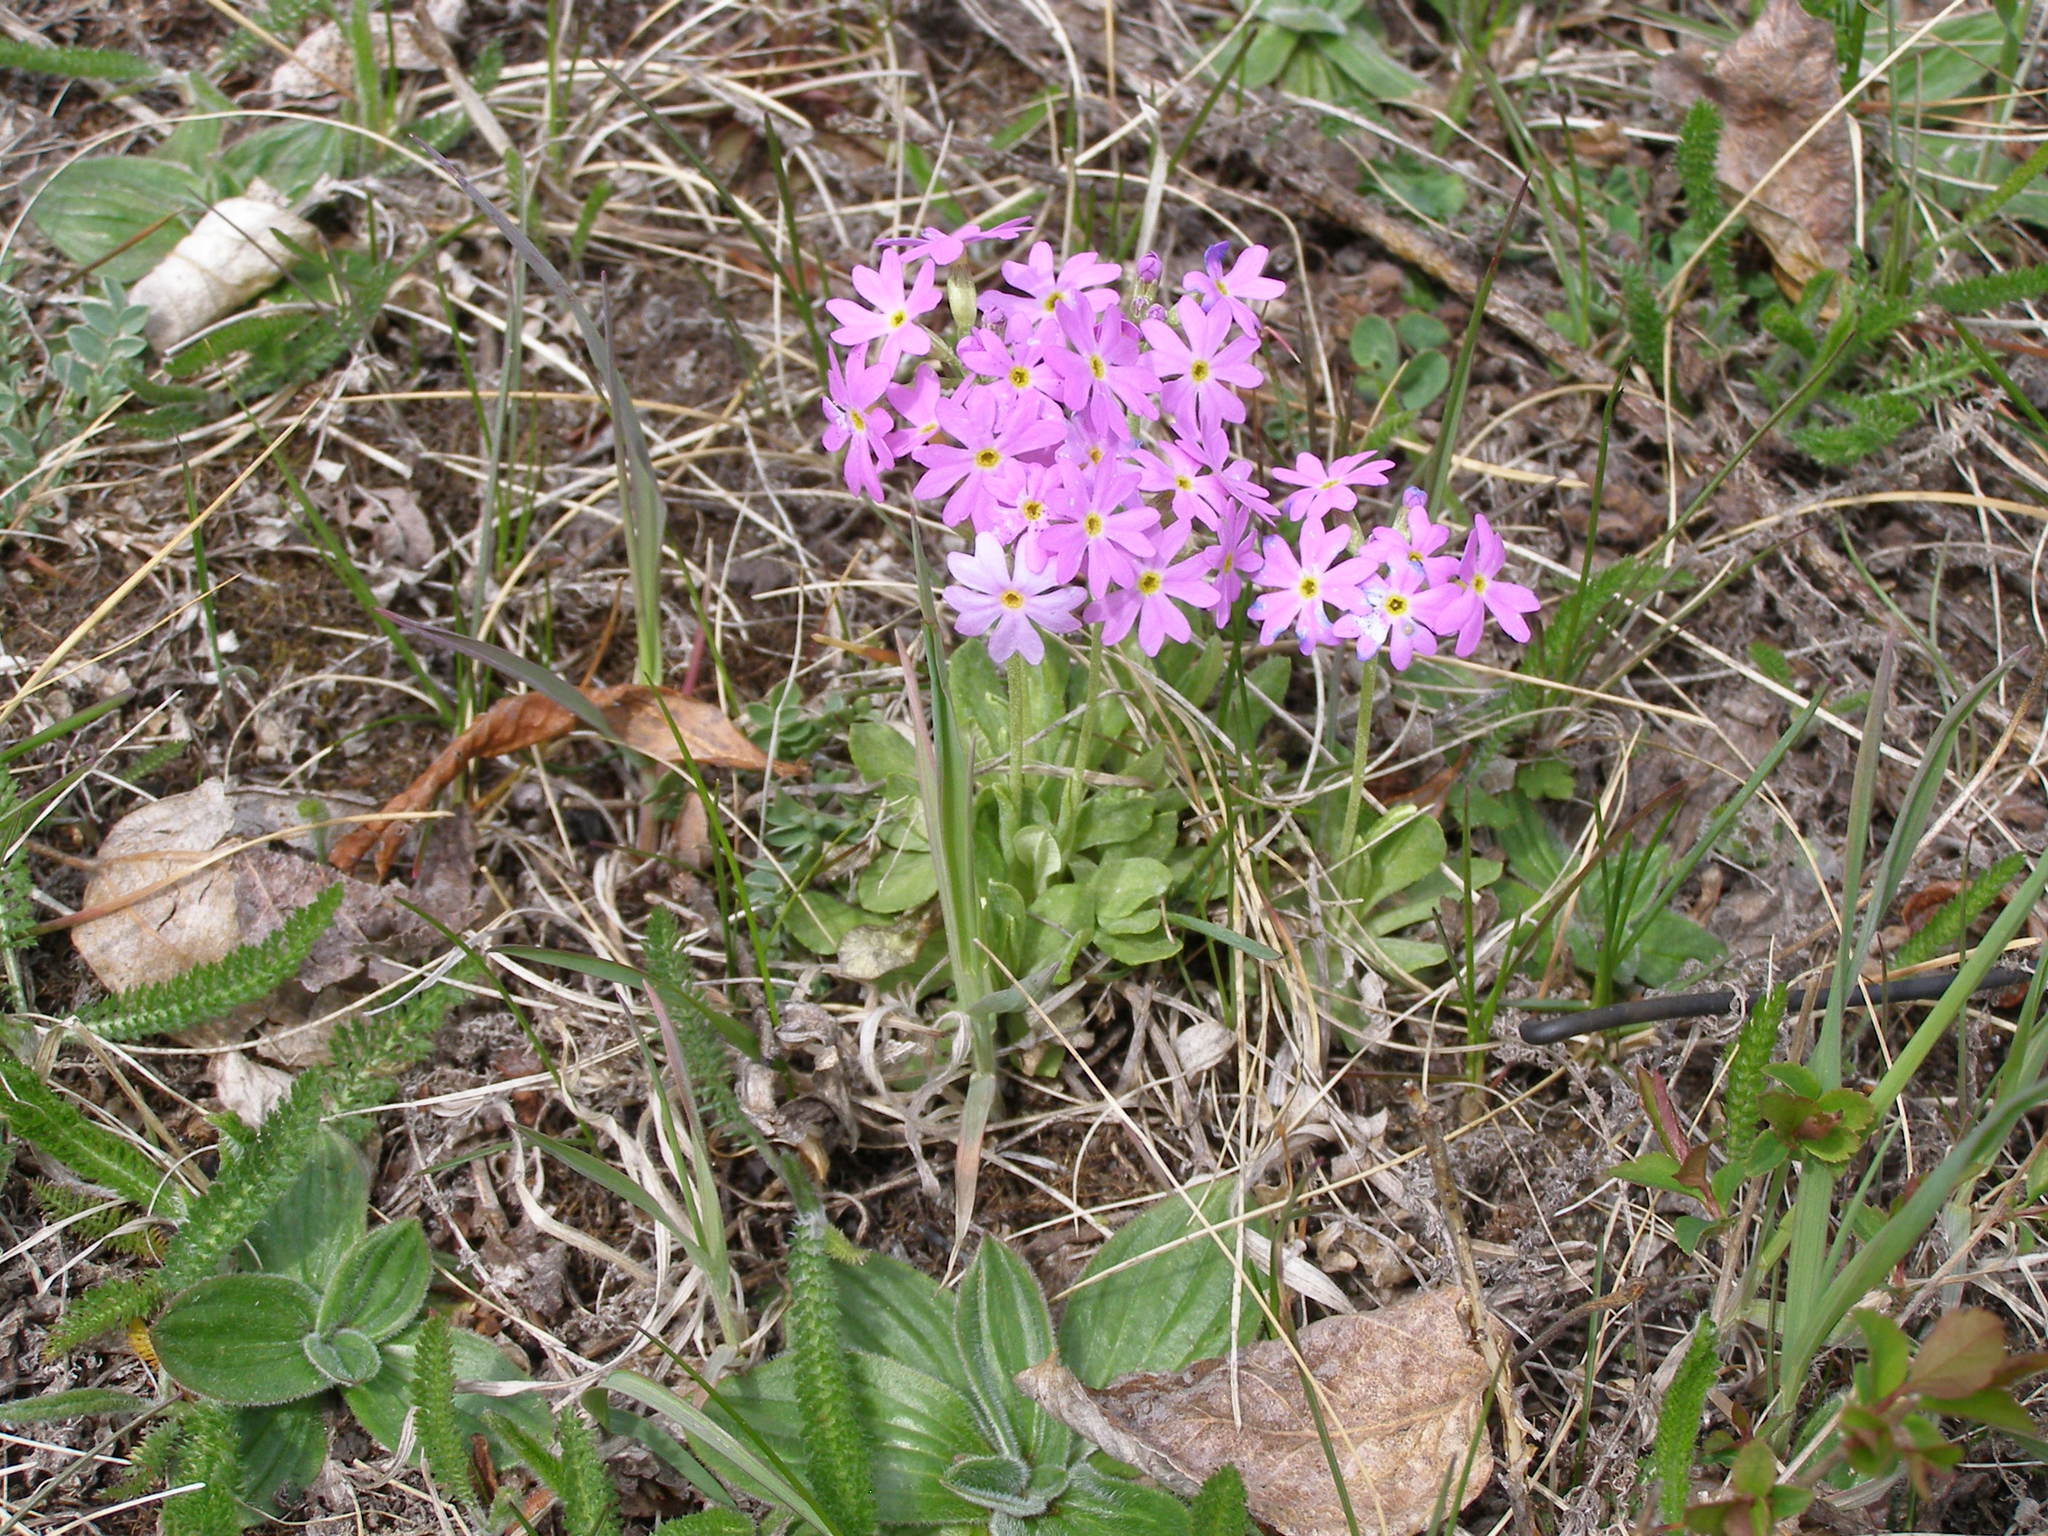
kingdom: Plantae
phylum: Tracheophyta
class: Magnoliopsida
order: Ericales
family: Primulaceae
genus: Primula
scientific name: Primula farinosa
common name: Bird's-eye primrose
